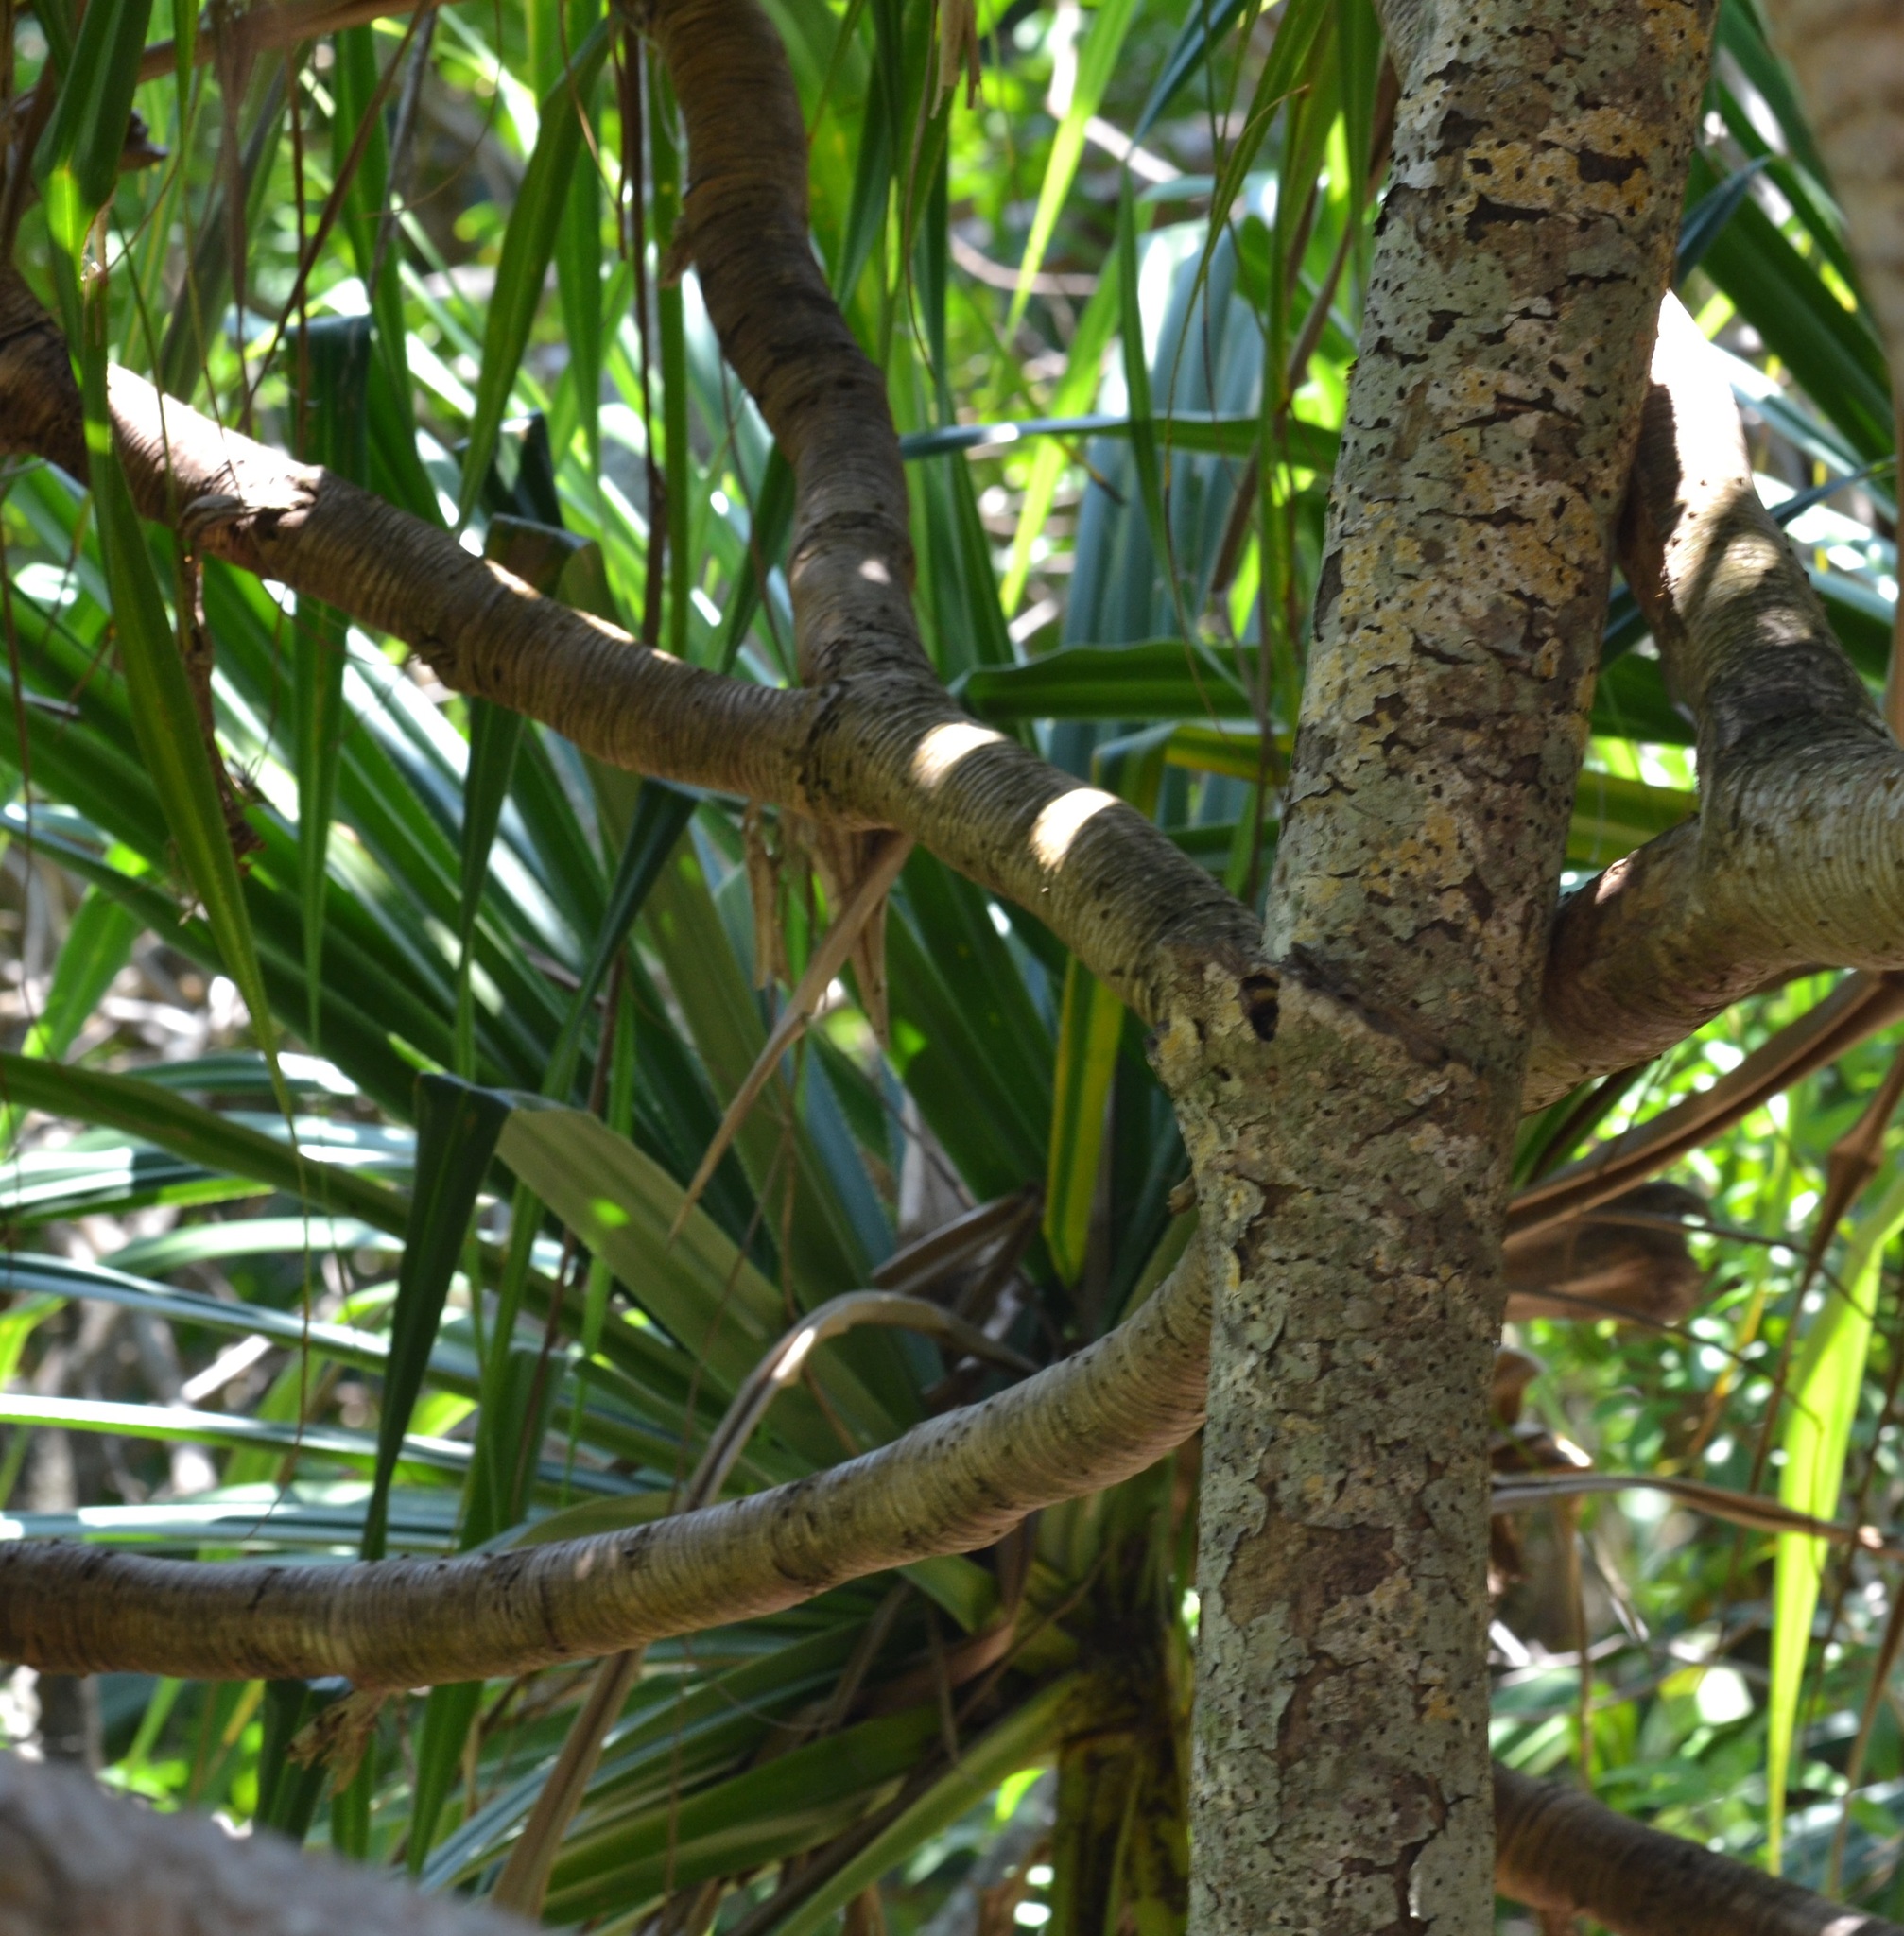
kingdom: Plantae
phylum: Tracheophyta
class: Liliopsida
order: Pandanales
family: Pandanaceae
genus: Pandanus
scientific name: Pandanus tectorius
